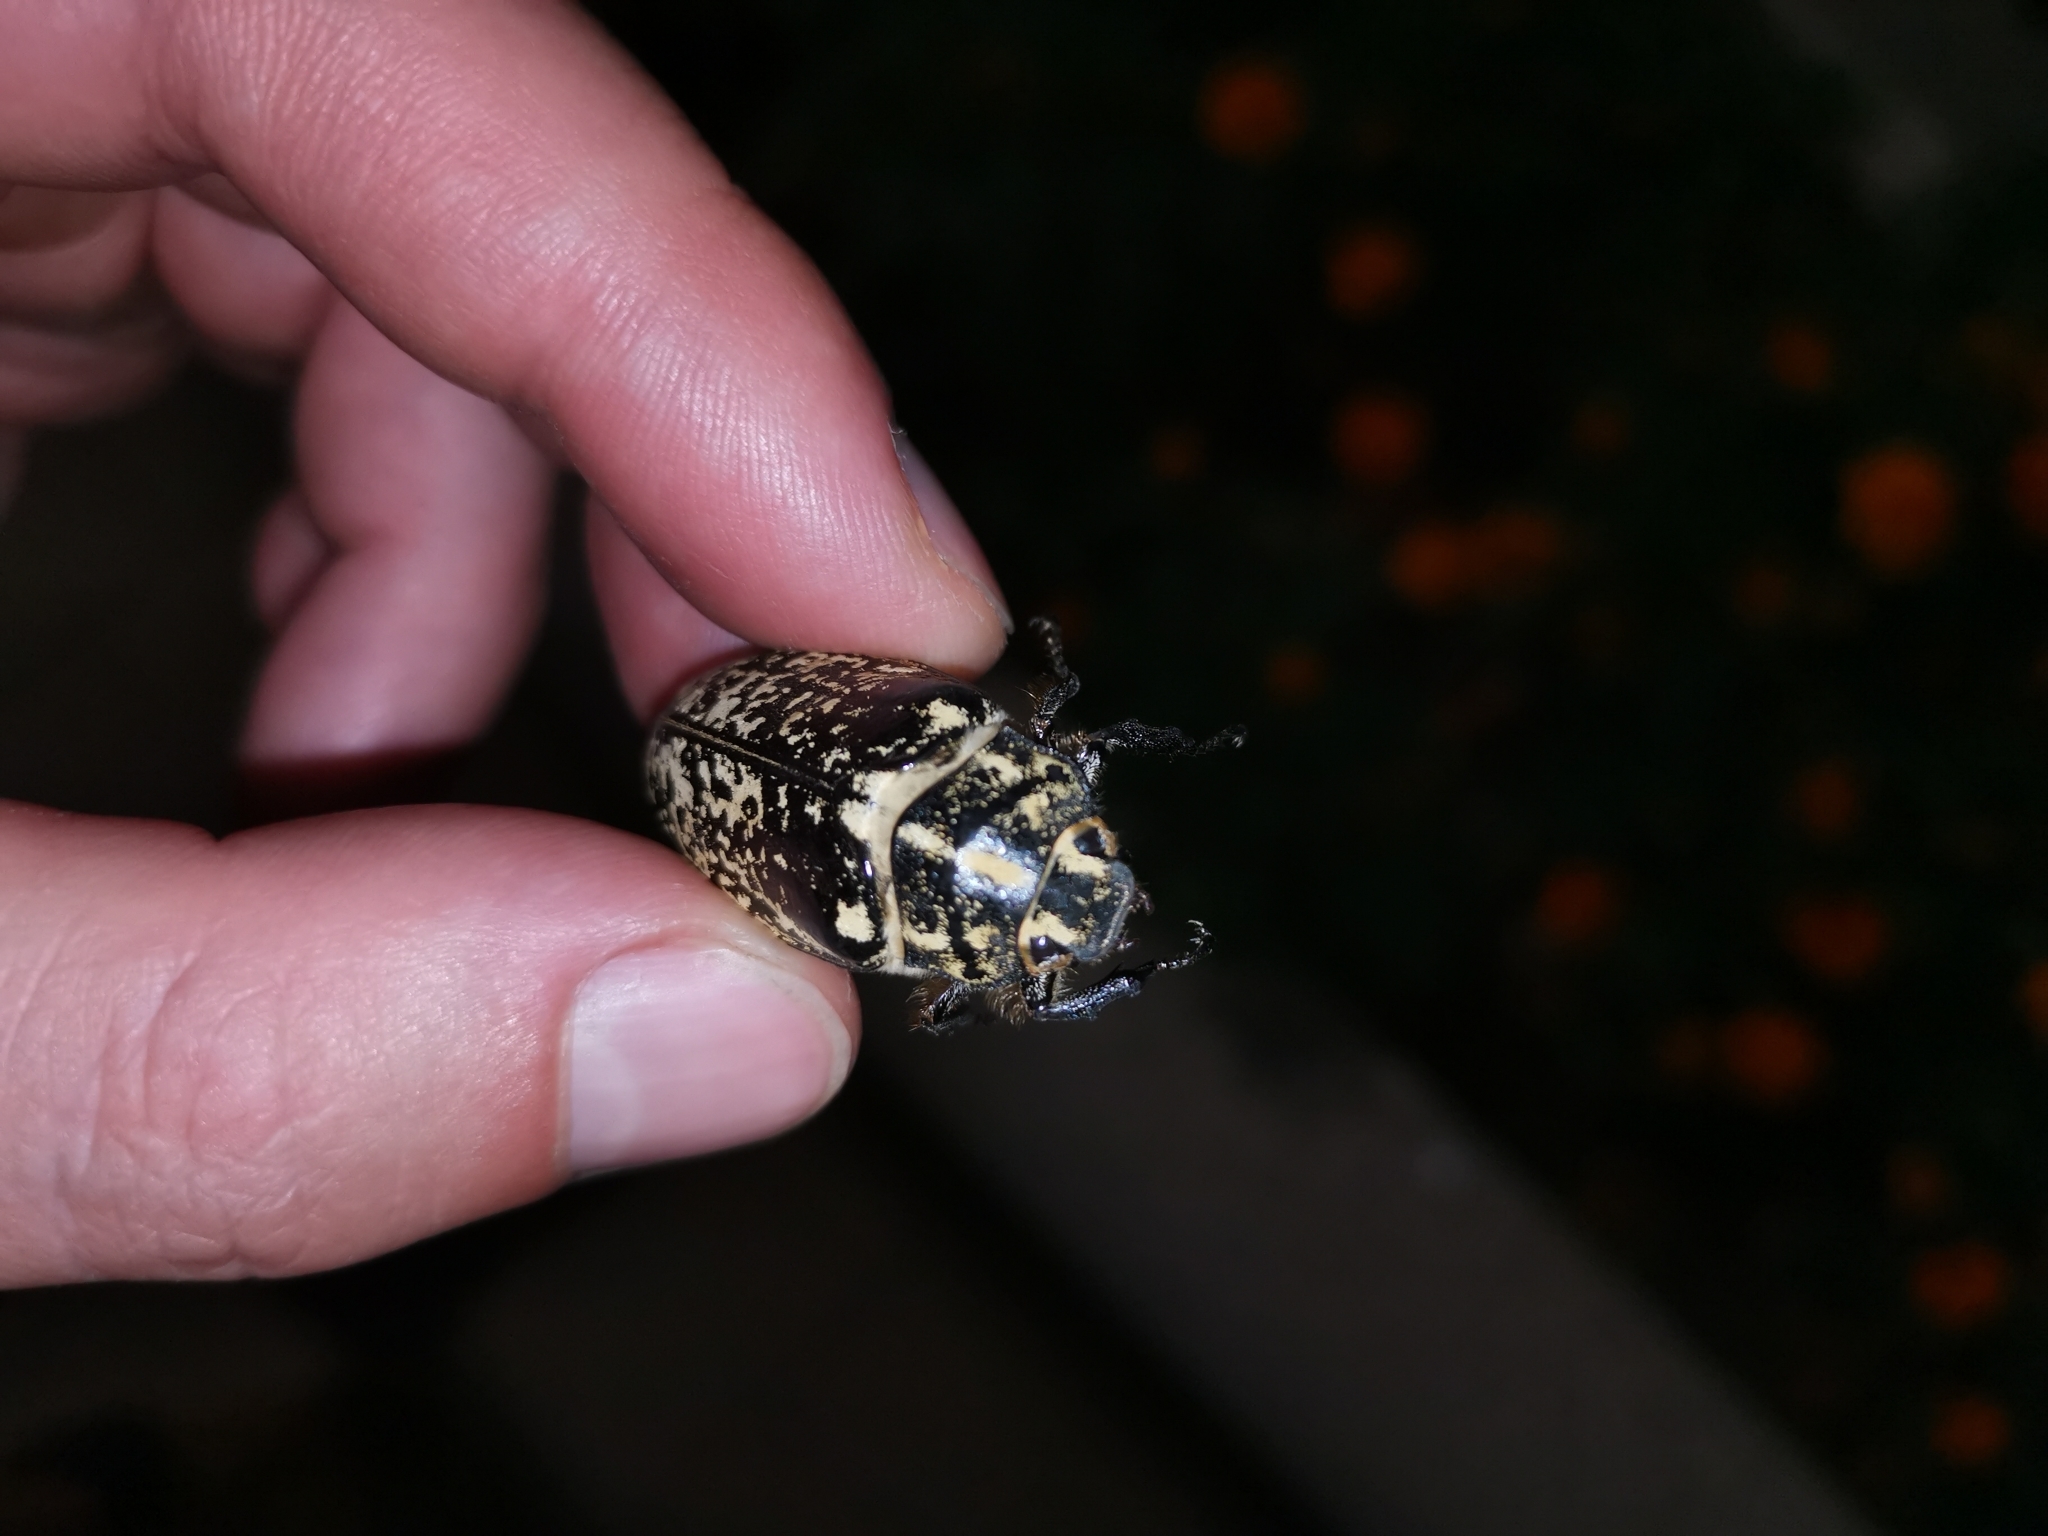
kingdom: Animalia
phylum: Arthropoda
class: Insecta
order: Coleoptera
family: Scarabaeidae
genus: Polyphylla
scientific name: Polyphylla fullo
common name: Pine chafer
